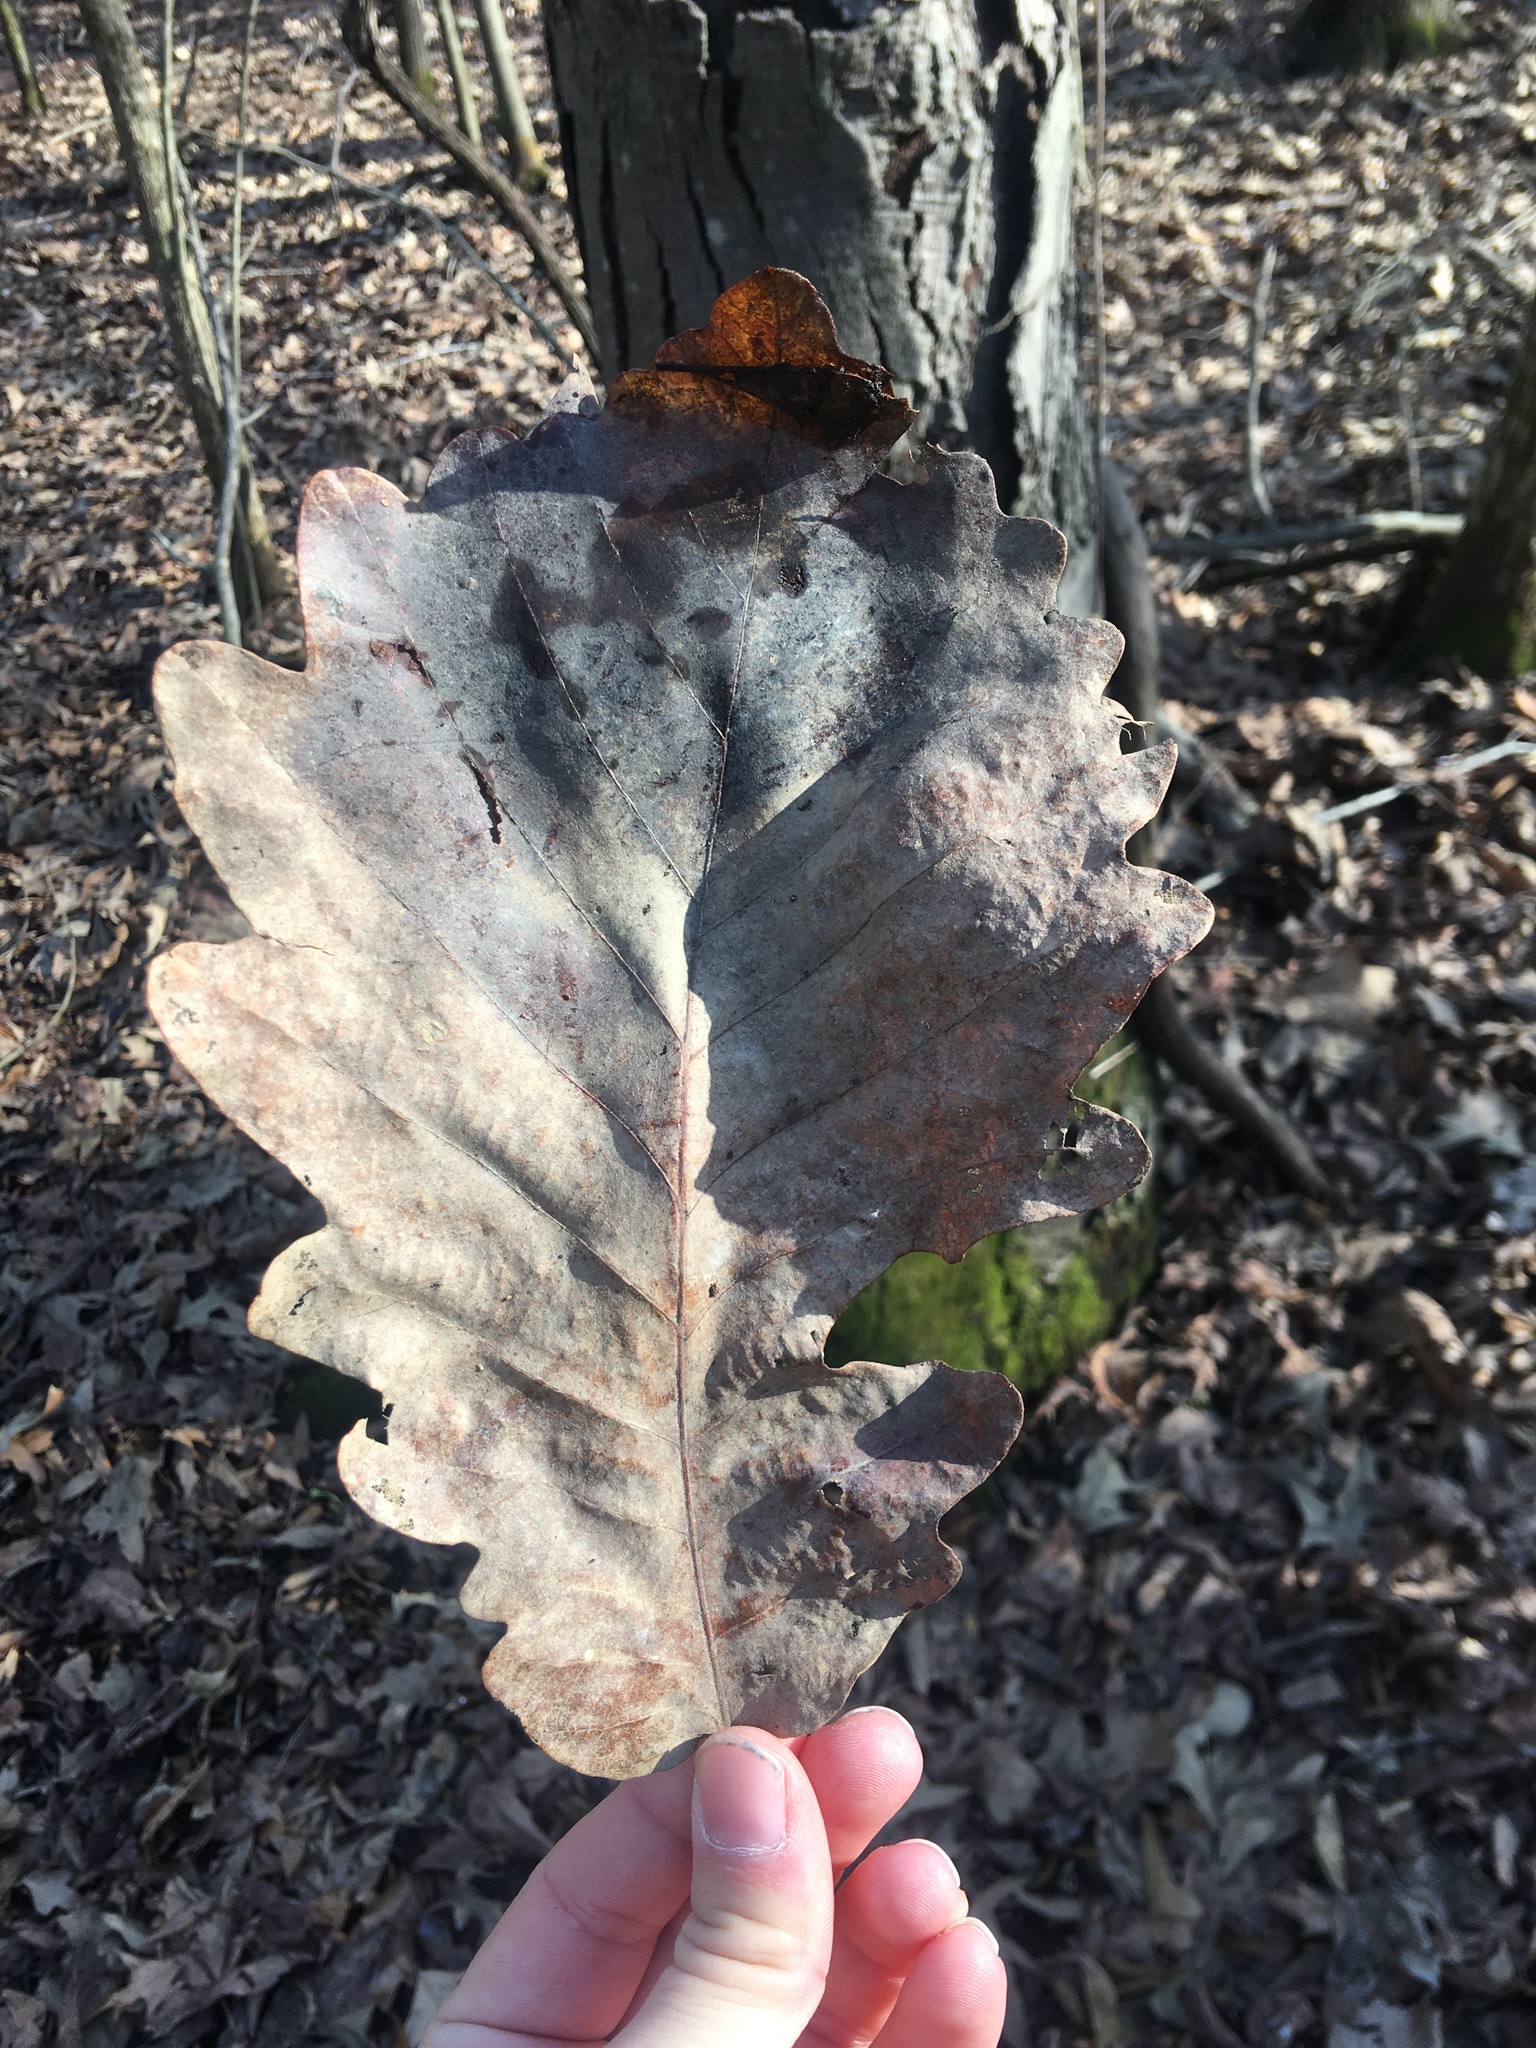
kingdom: Plantae
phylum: Tracheophyta
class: Magnoliopsida
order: Fagales
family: Fagaceae
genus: Quercus
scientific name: Quercus michauxii
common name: Swamp chestnut oak
